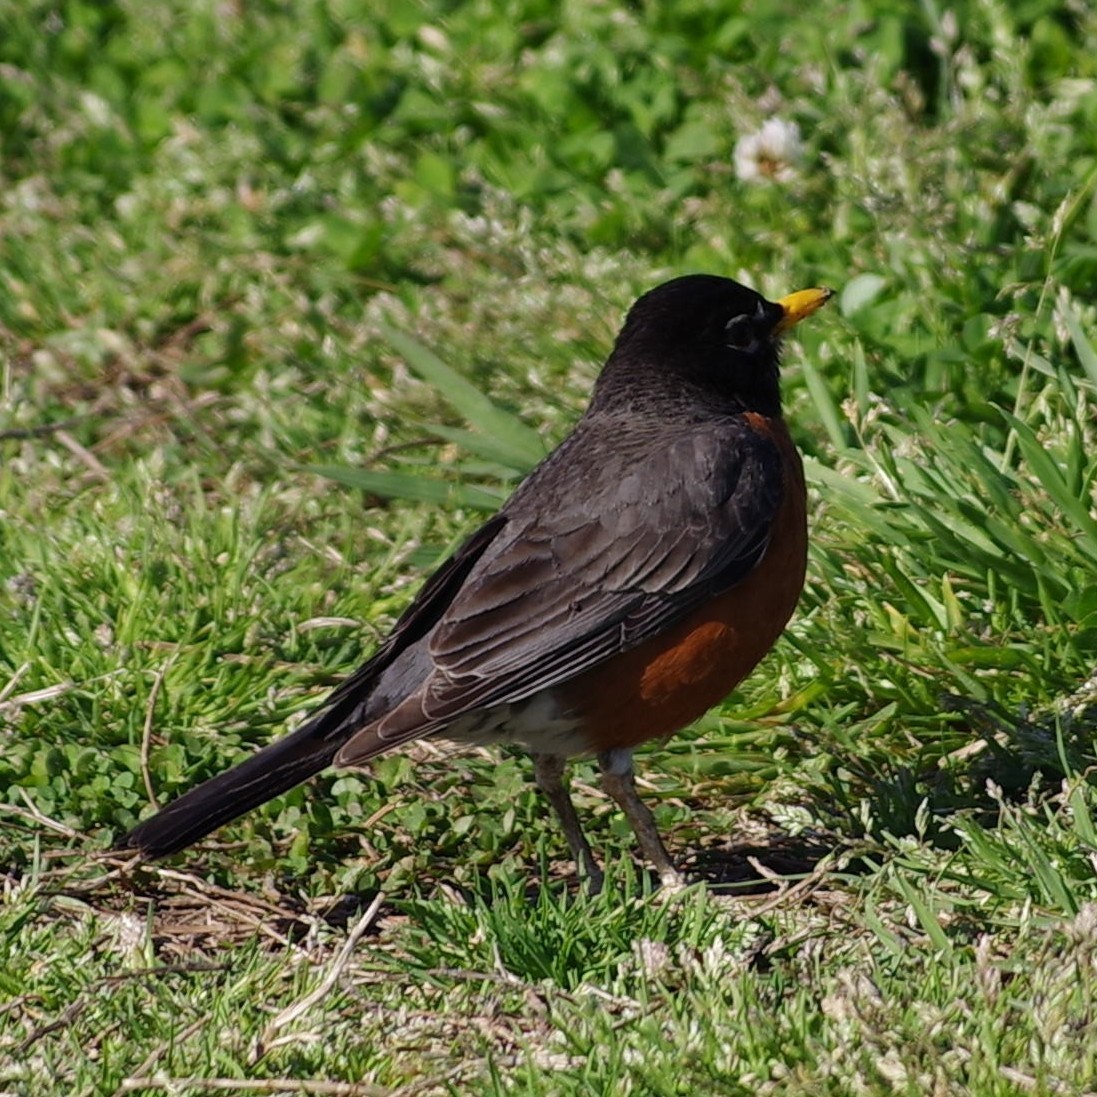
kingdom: Animalia
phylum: Chordata
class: Aves
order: Passeriformes
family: Turdidae
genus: Turdus
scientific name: Turdus migratorius
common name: American robin
